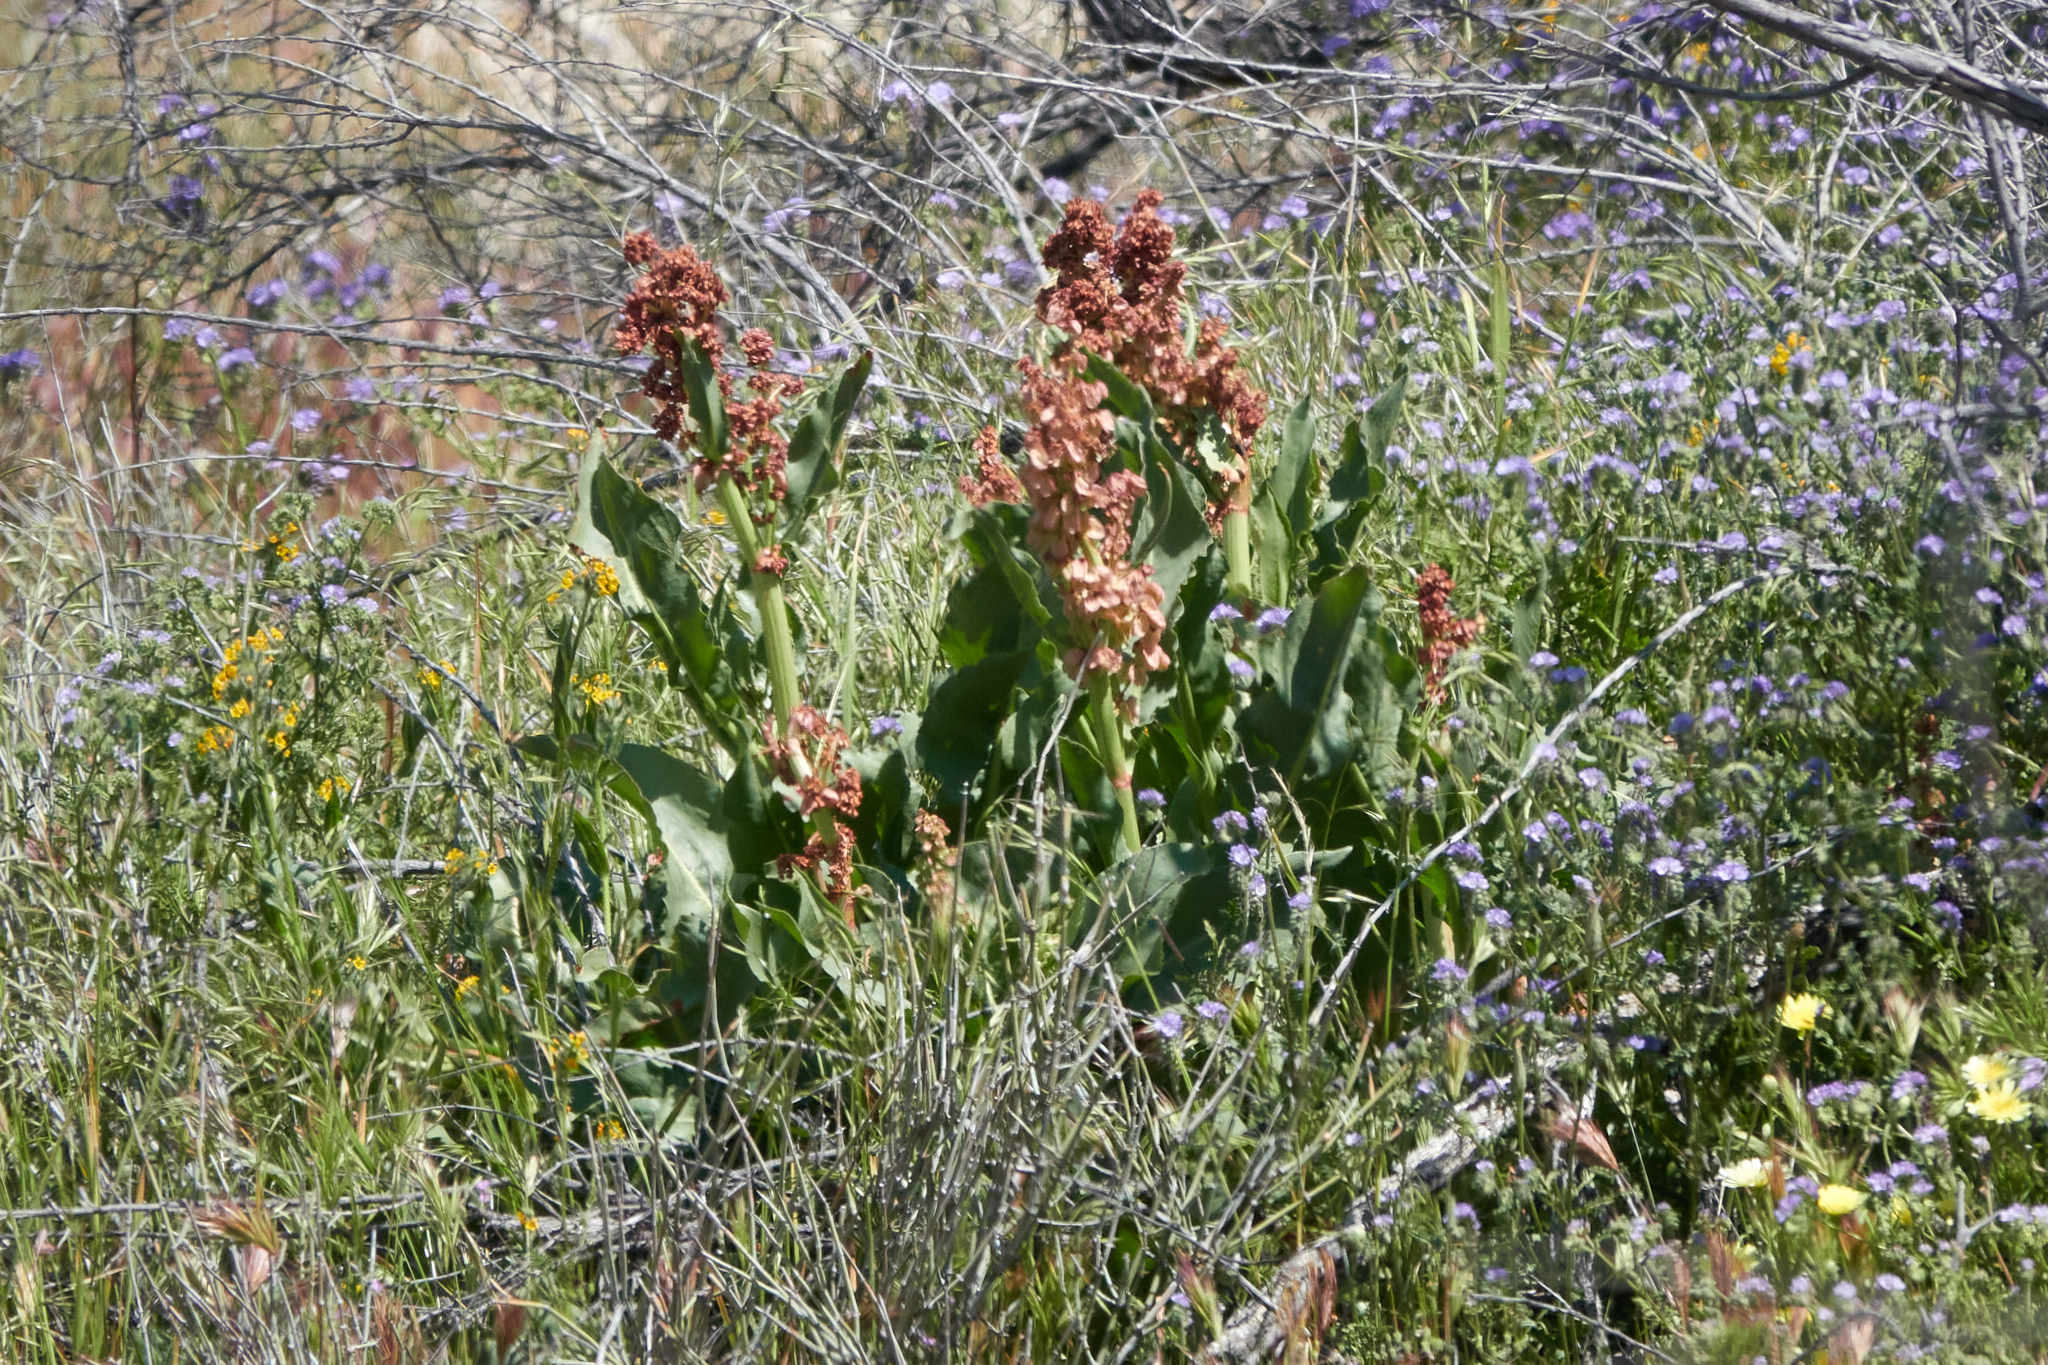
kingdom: Plantae
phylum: Tracheophyta
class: Magnoliopsida
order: Caryophyllales
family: Polygonaceae
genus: Rumex
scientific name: Rumex hymenosepalus
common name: Ganagra
